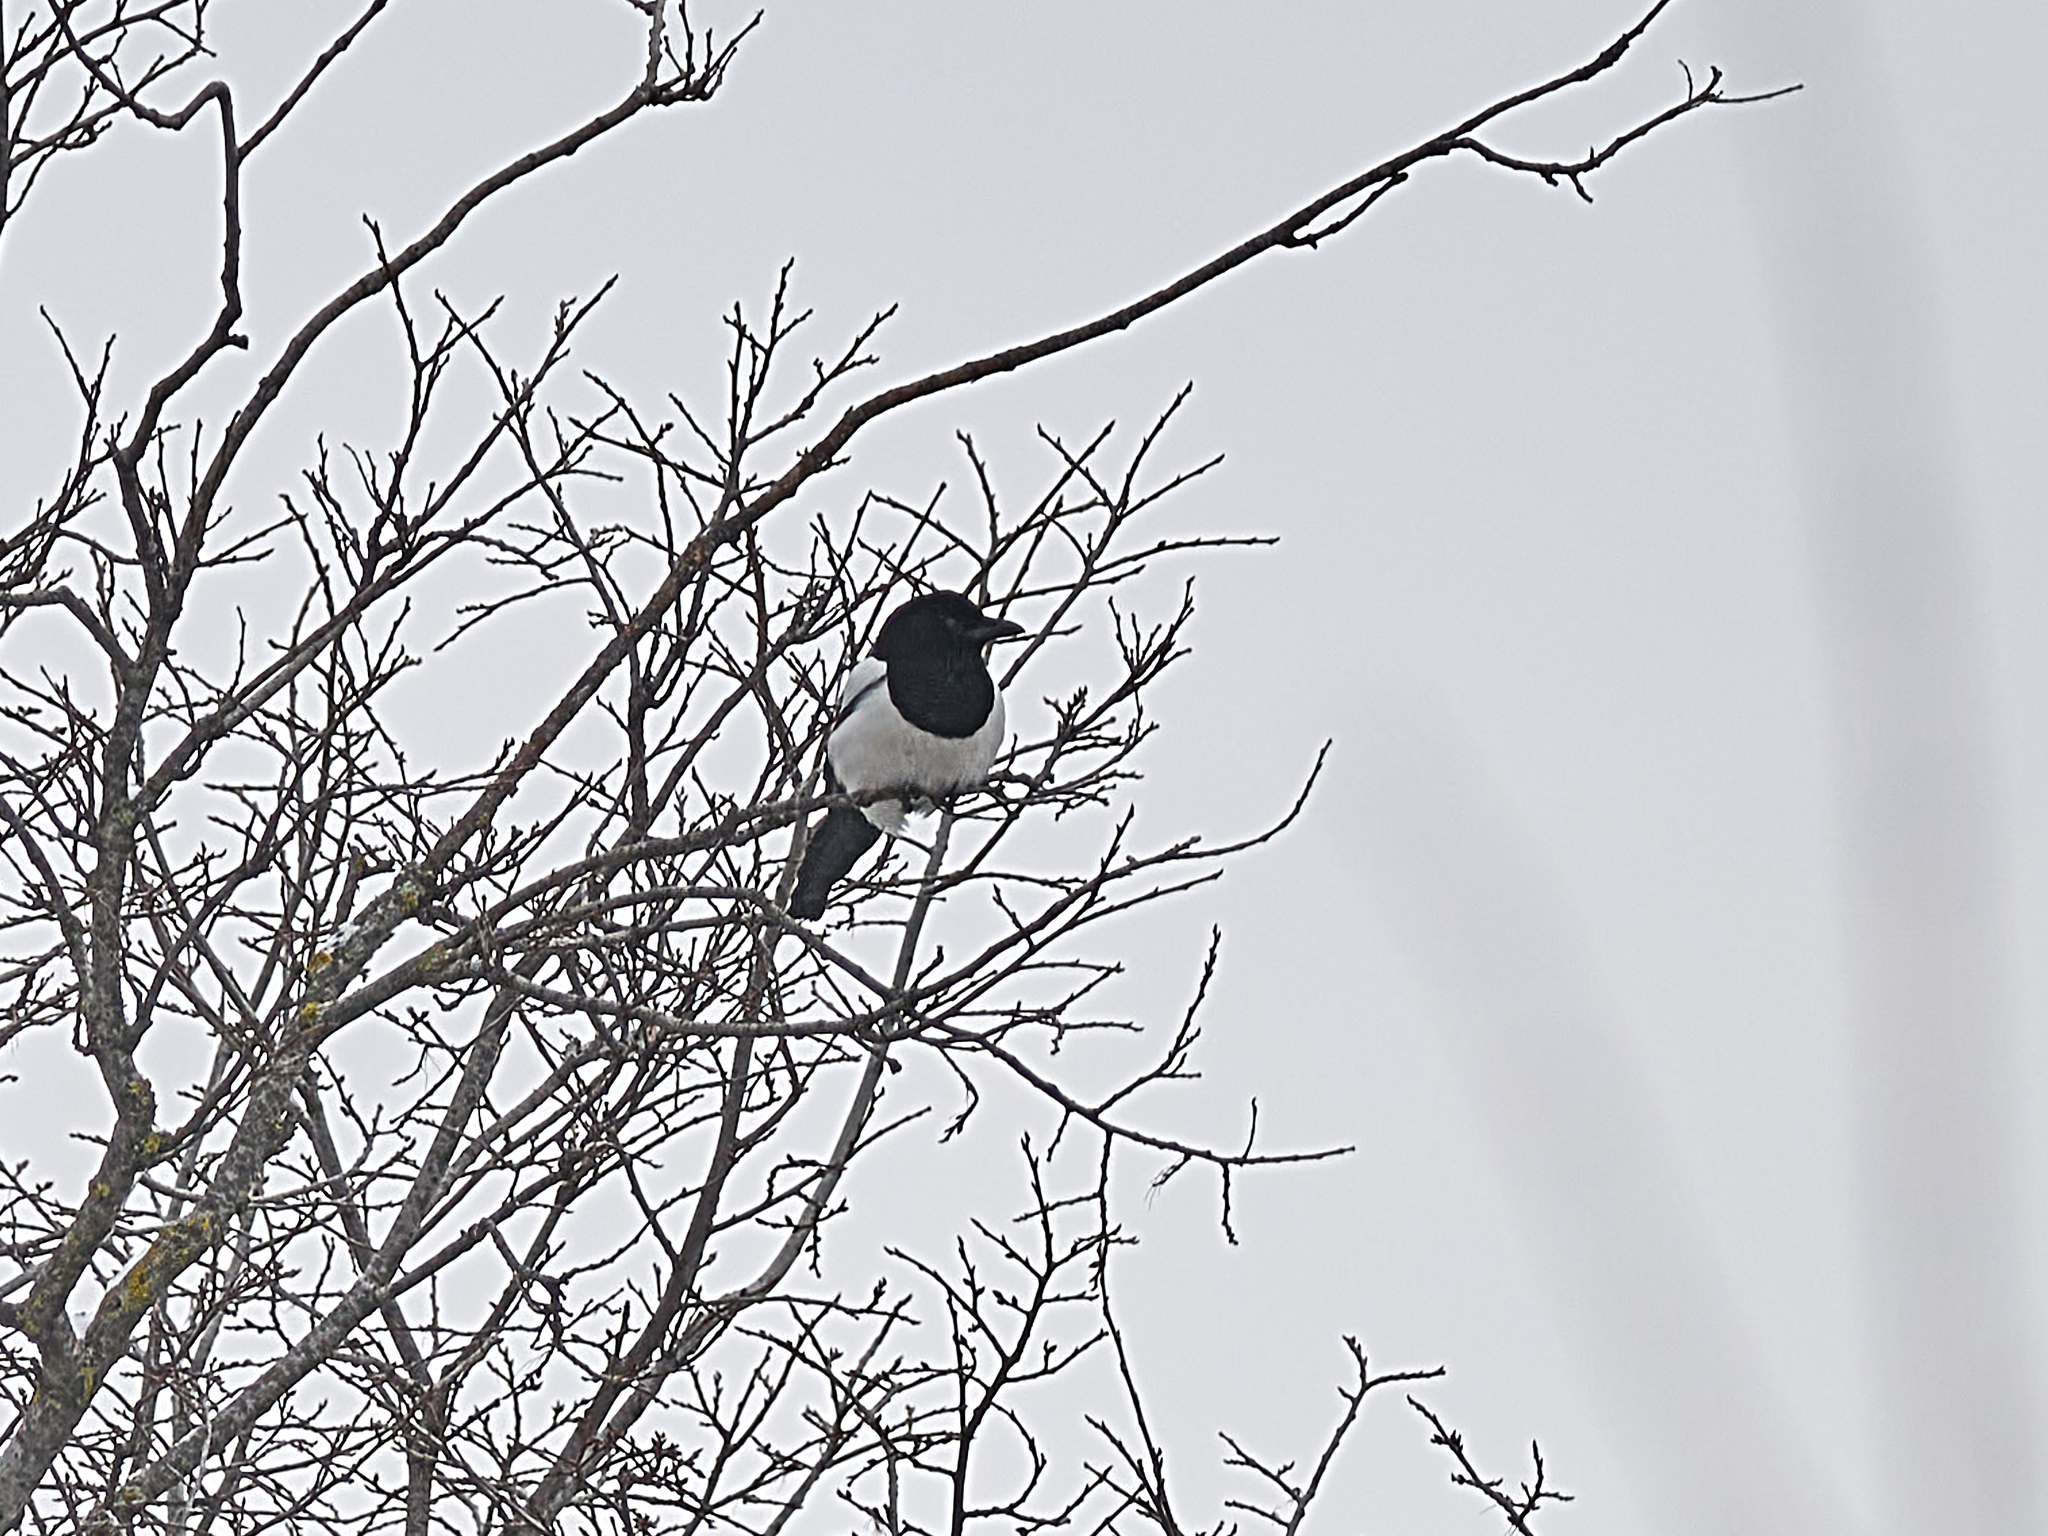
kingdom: Animalia
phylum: Chordata
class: Aves
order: Passeriformes
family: Corvidae
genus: Pica
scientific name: Pica pica
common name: Eurasian magpie
